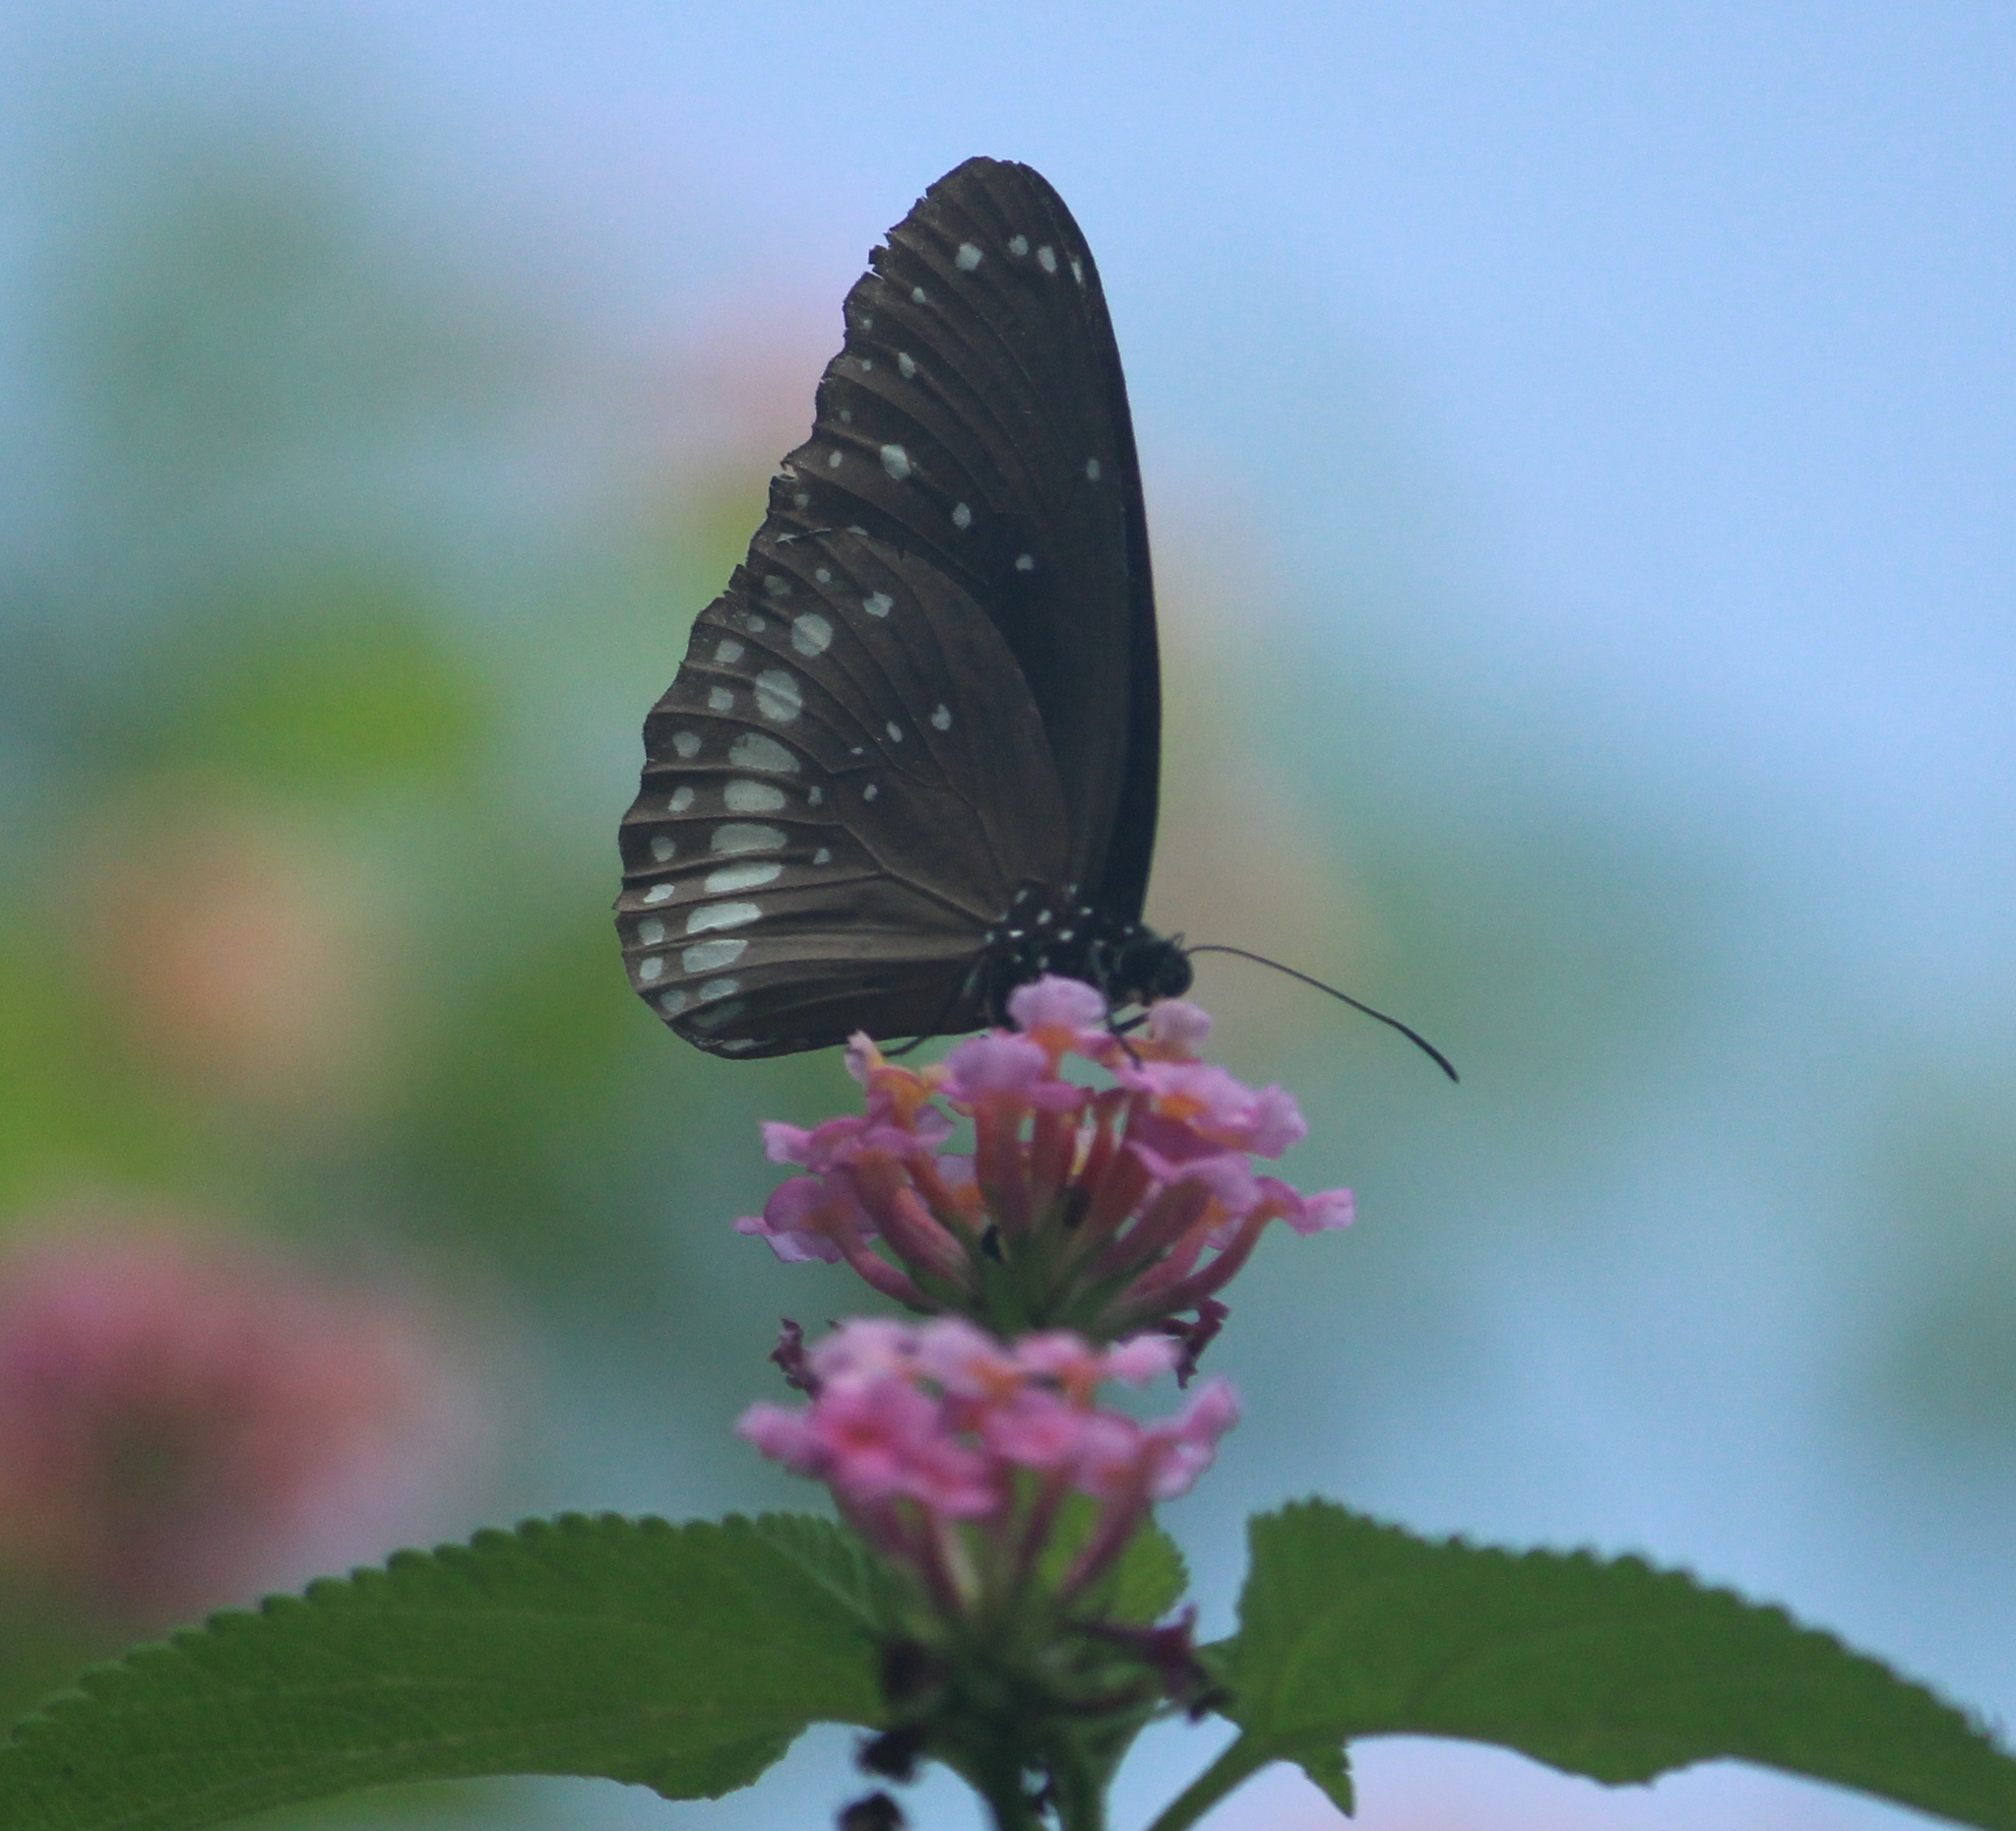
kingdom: Animalia
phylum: Arthropoda
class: Insecta
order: Lepidoptera
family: Nymphalidae
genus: Euploea
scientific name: Euploea core
